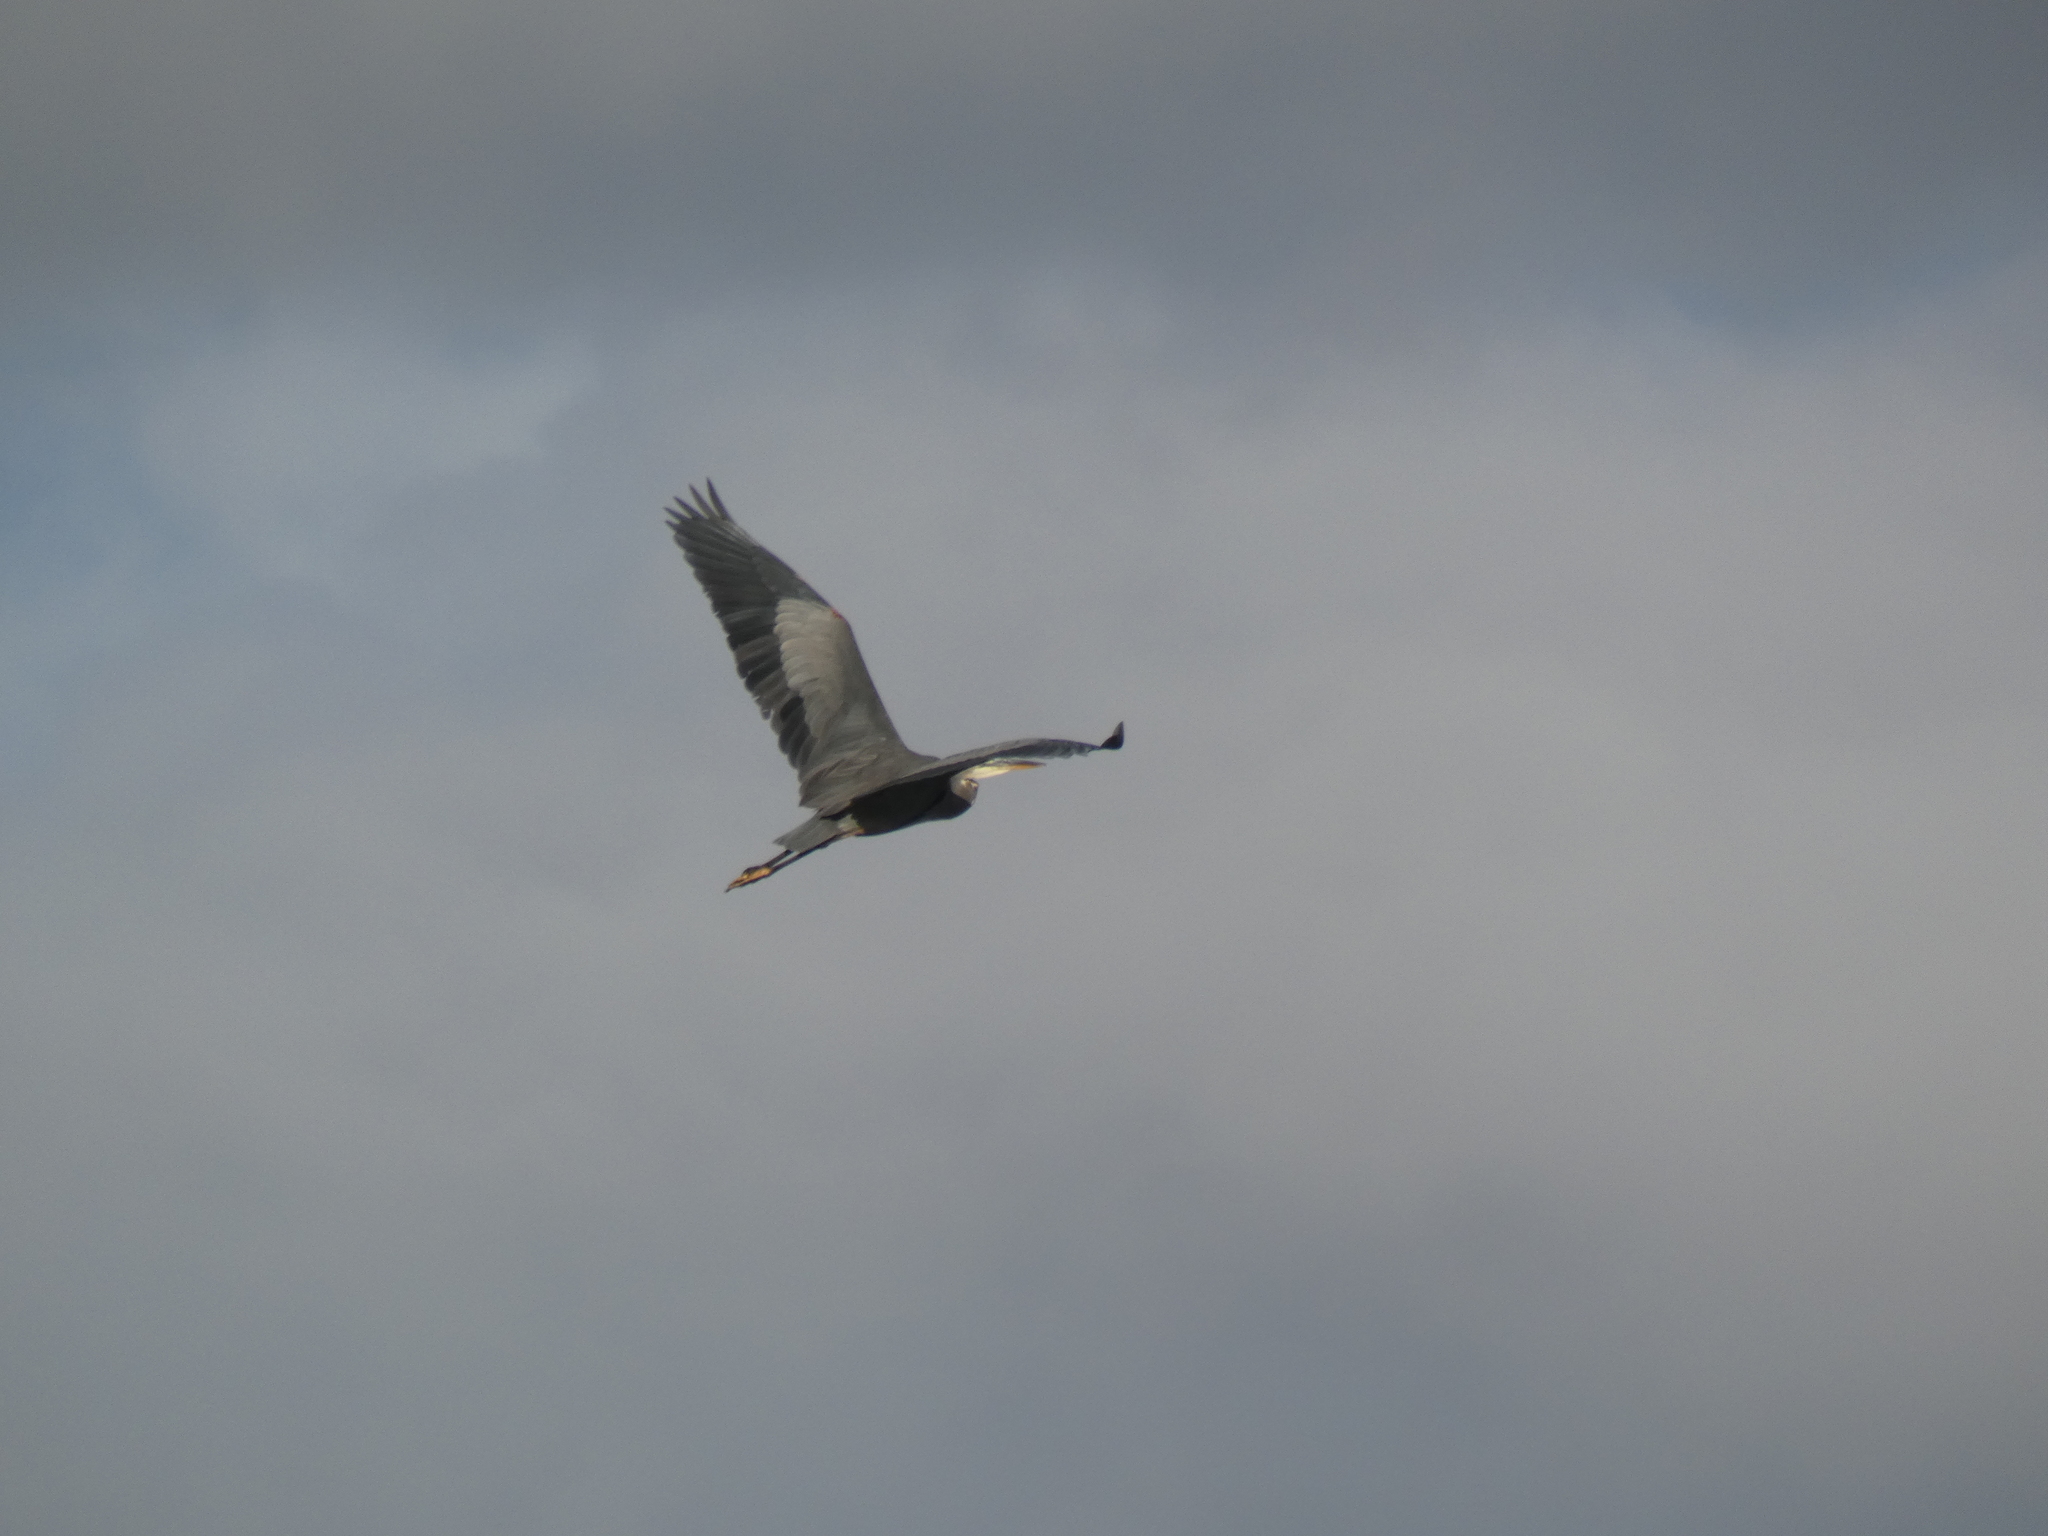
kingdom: Animalia
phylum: Chordata
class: Aves
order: Pelecaniformes
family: Ardeidae
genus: Ardea
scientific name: Ardea herodias
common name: Great blue heron
